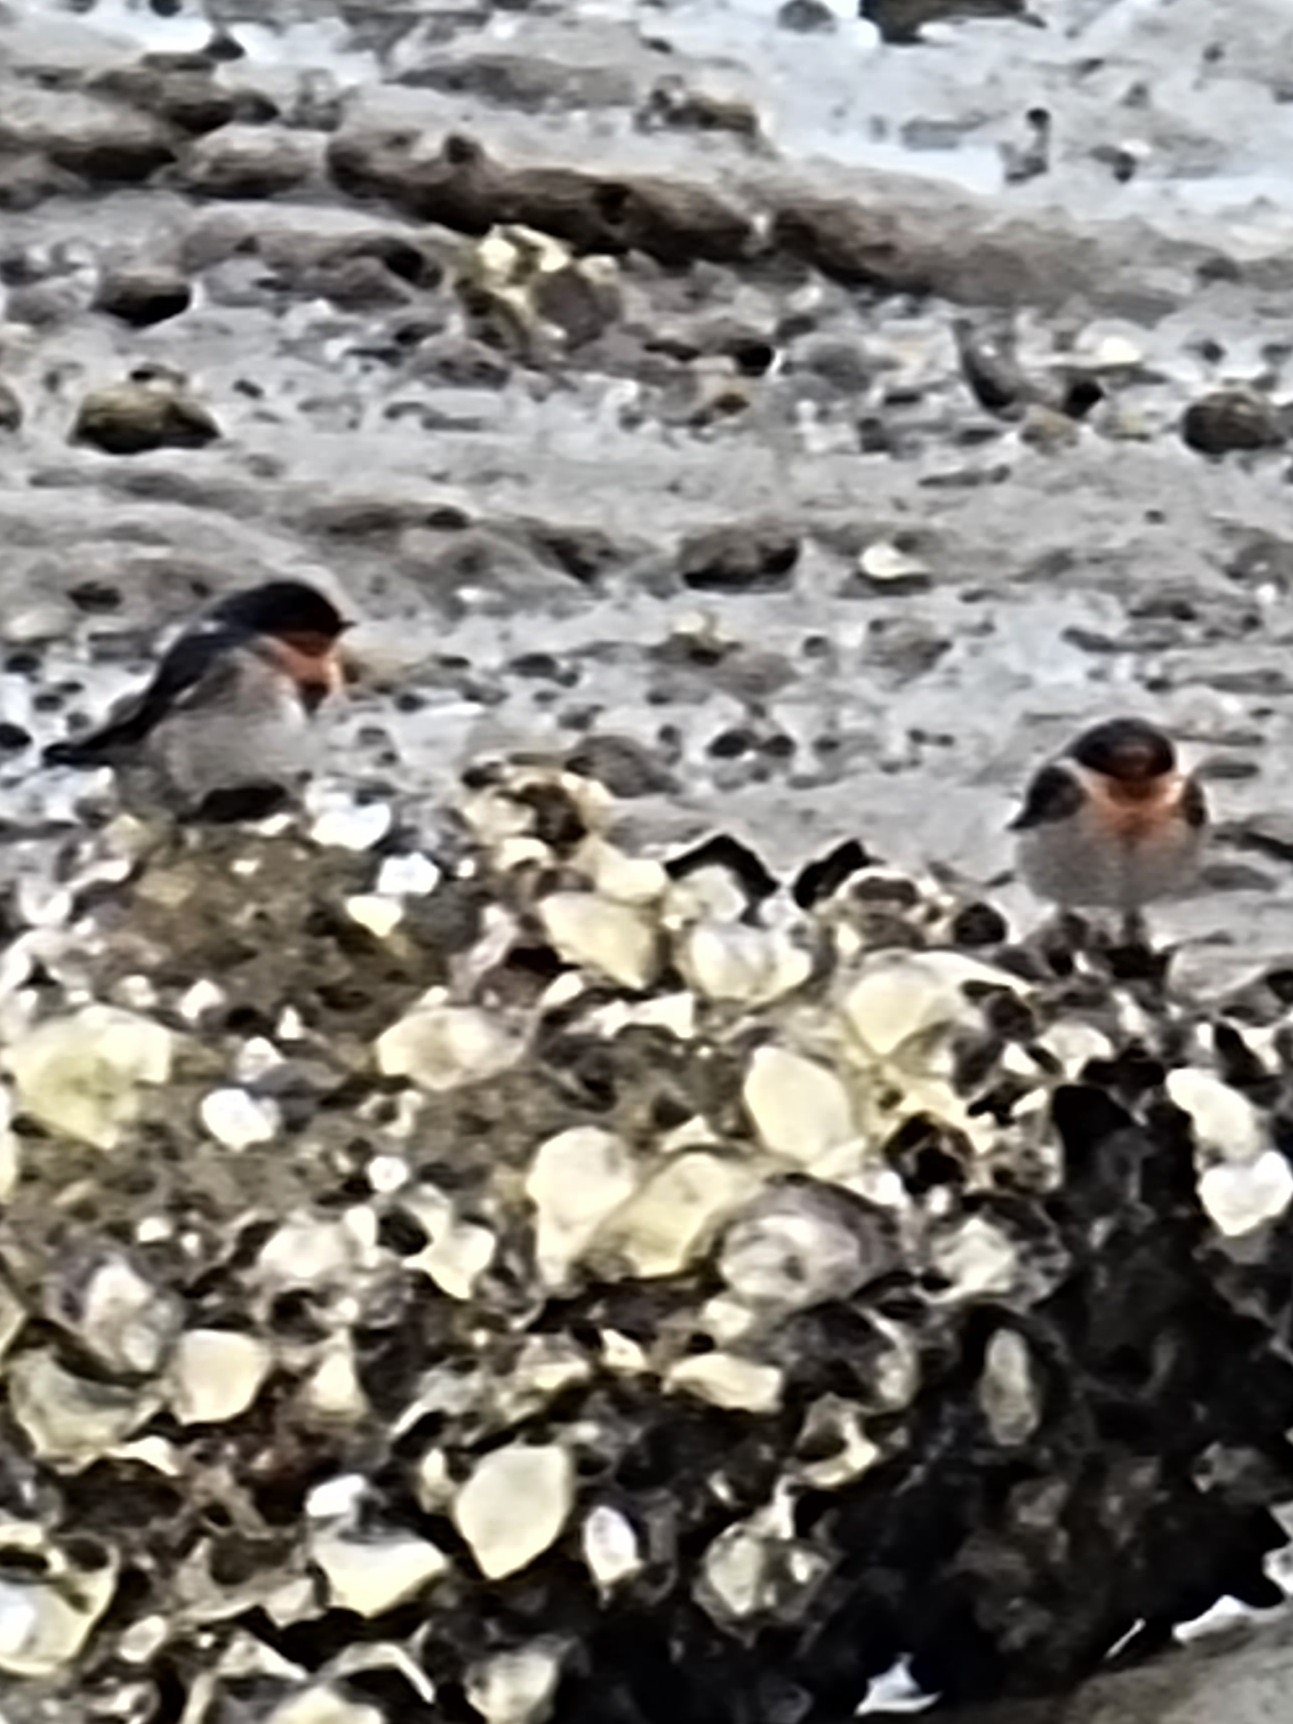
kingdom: Animalia
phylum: Chordata
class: Aves
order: Passeriformes
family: Hirundinidae
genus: Hirundo
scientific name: Hirundo neoxena
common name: Welcome swallow
